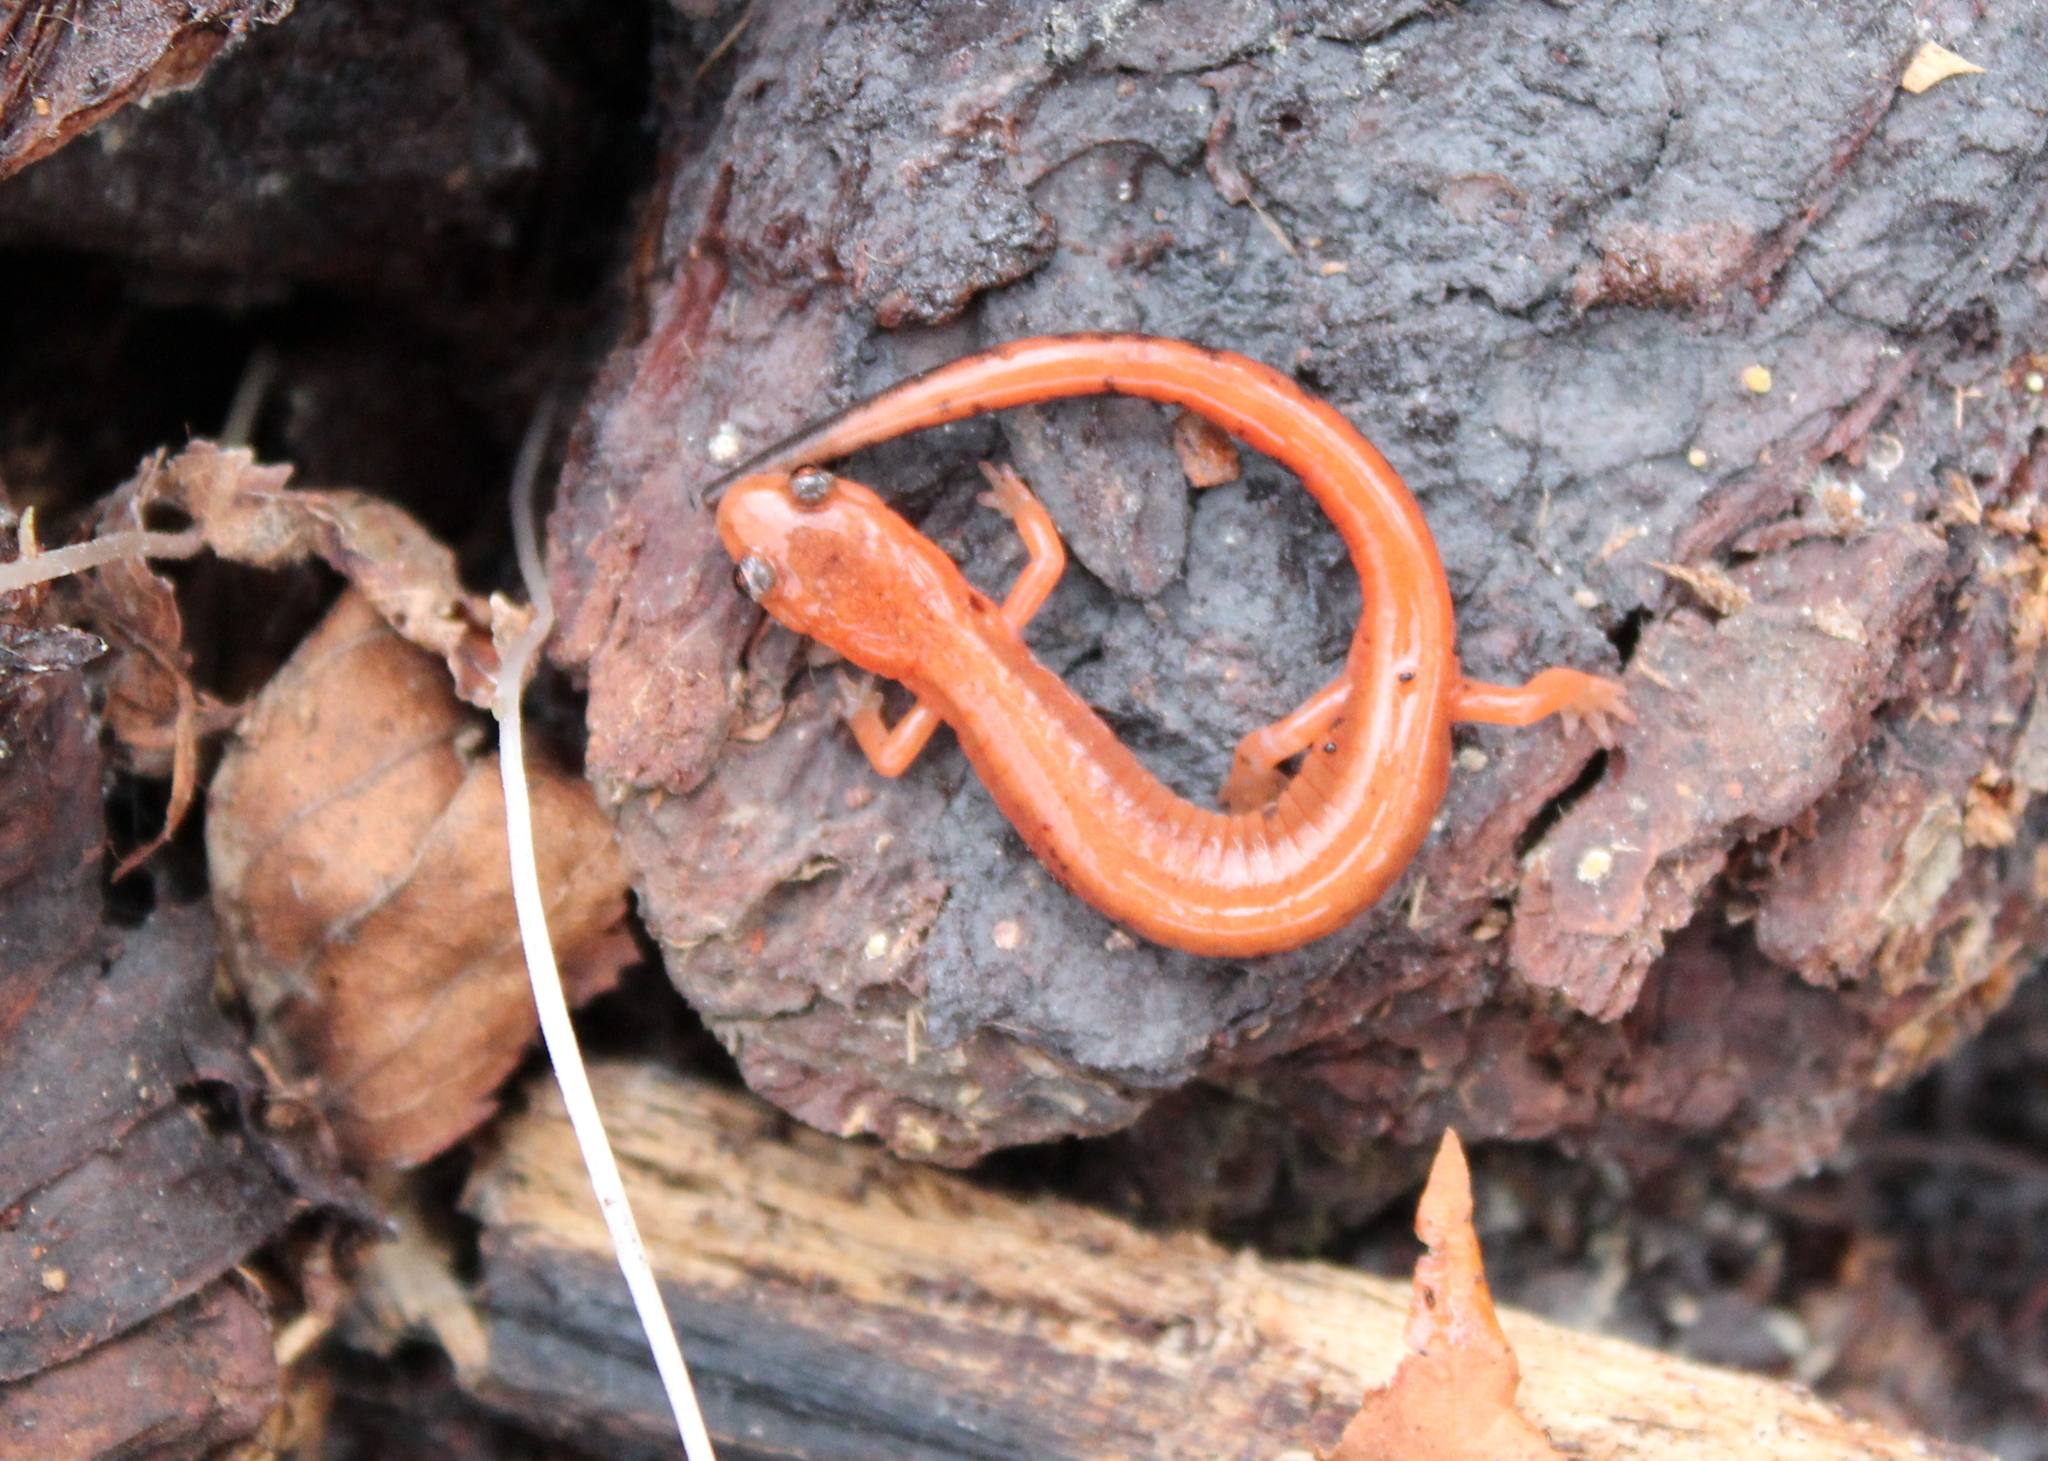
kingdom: Animalia
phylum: Chordata
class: Amphibia
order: Caudata
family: Plethodontidae
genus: Plethodon
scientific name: Plethodon cinereus
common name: Redback salamander
